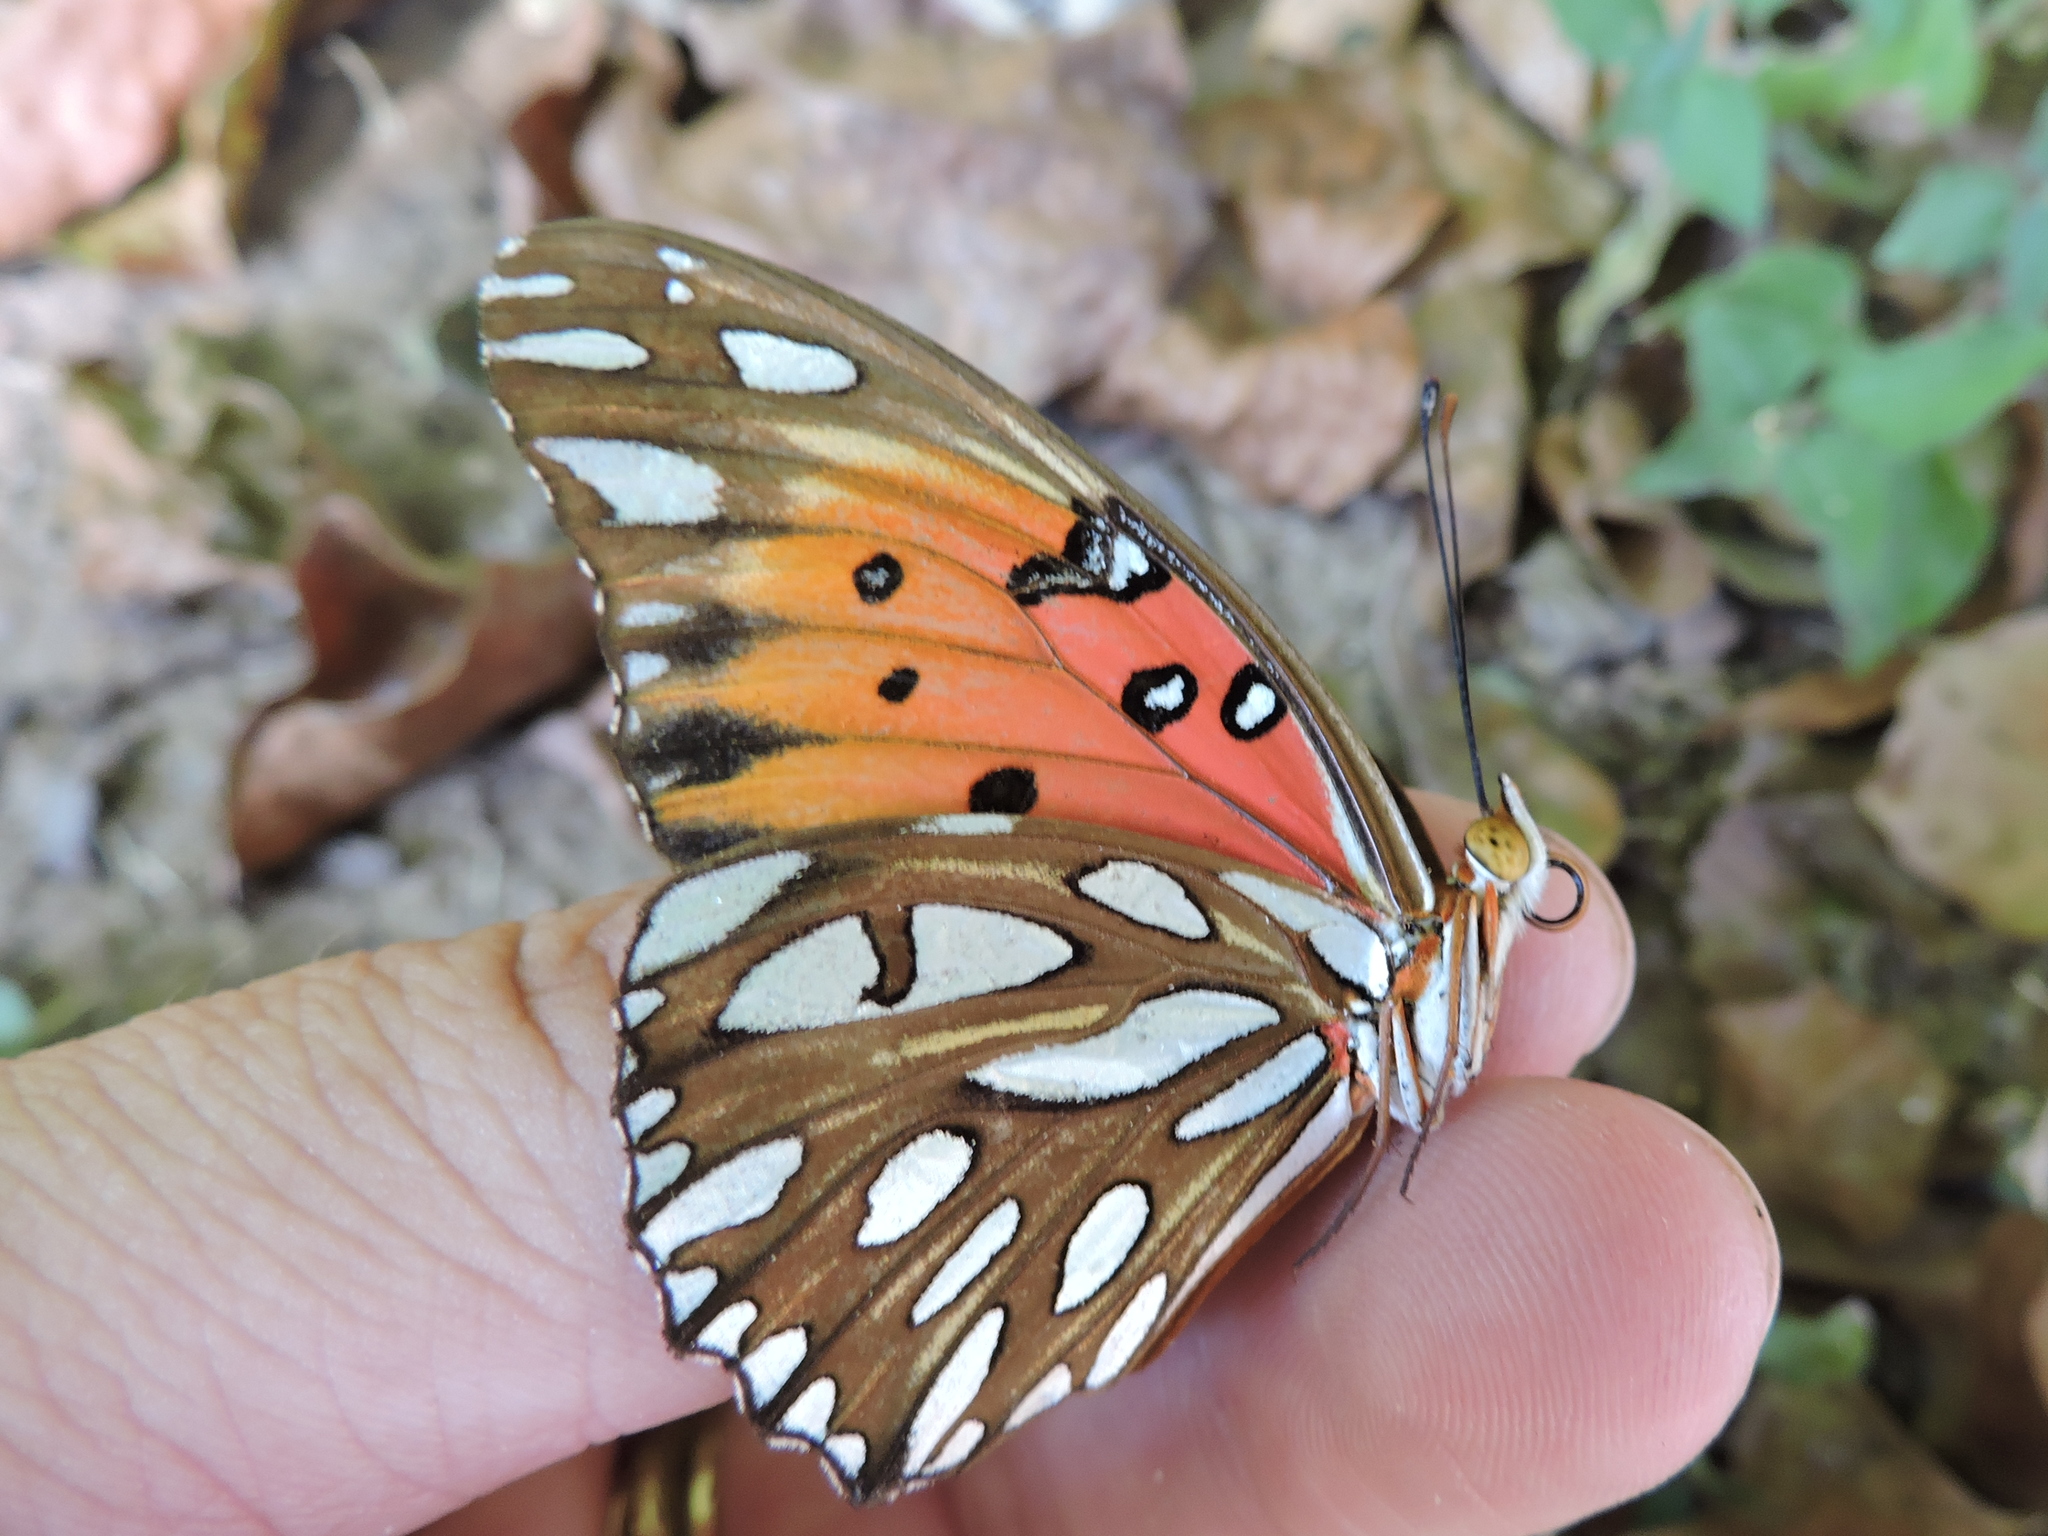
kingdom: Animalia
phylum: Arthropoda
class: Insecta
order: Lepidoptera
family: Nymphalidae
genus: Dione
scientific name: Dione vanillae
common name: Gulf fritillary
